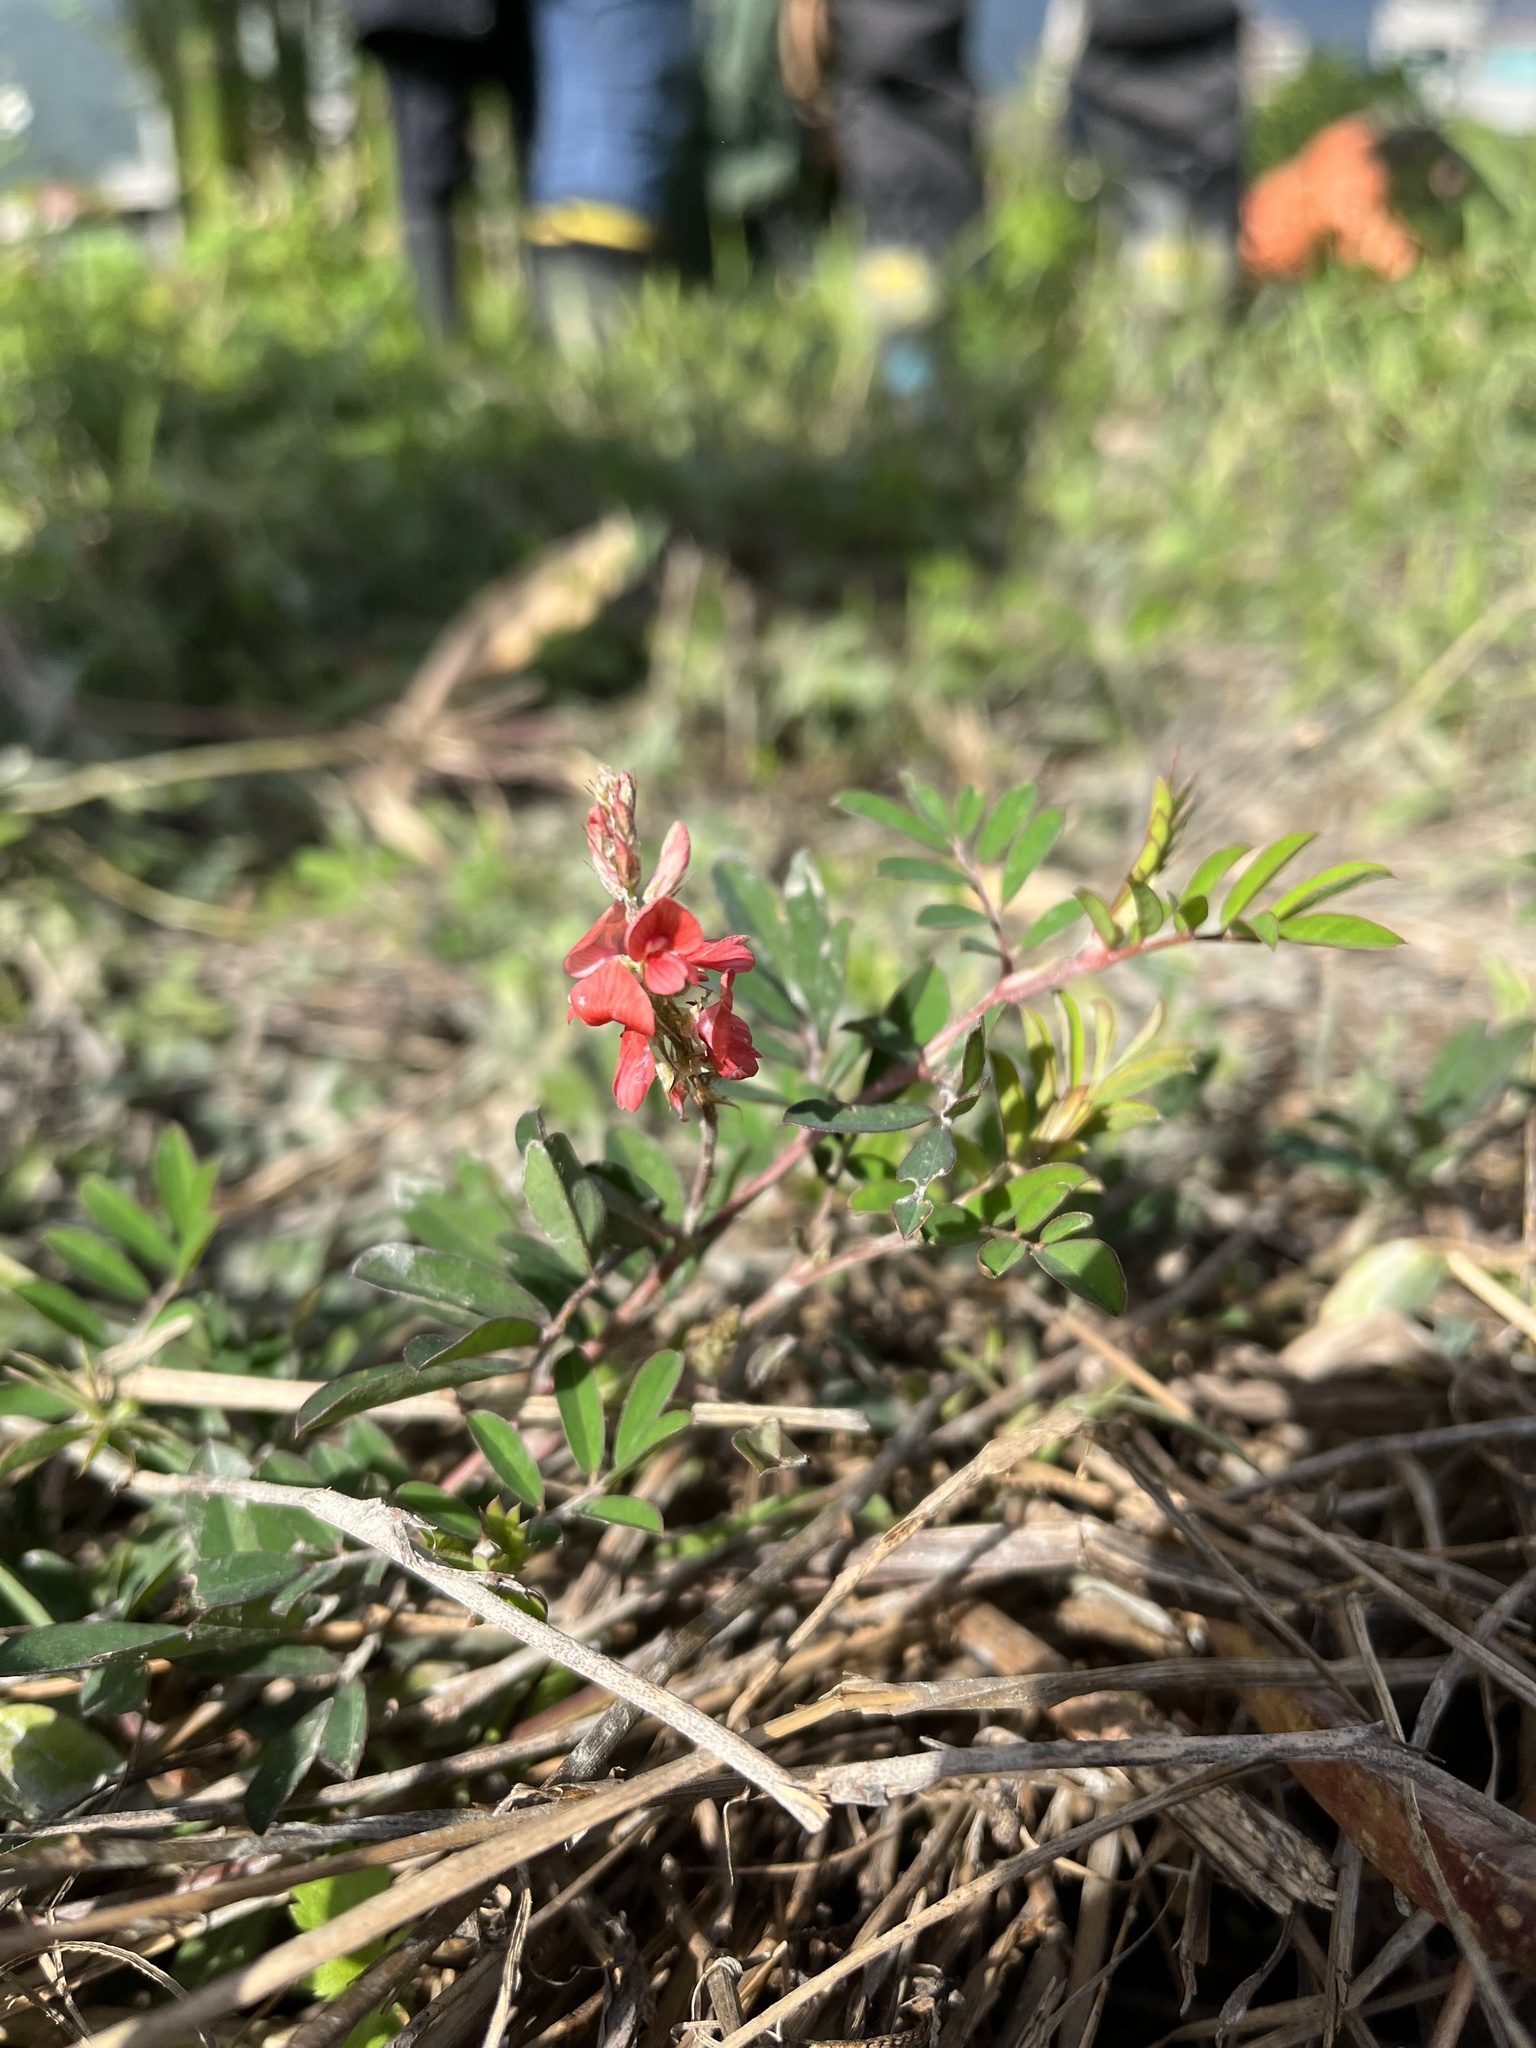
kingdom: Plantae
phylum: Tracheophyta
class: Magnoliopsida
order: Fabales
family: Fabaceae
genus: Indigofera
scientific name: Indigofera hendecaphylla
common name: Trailing indigo
